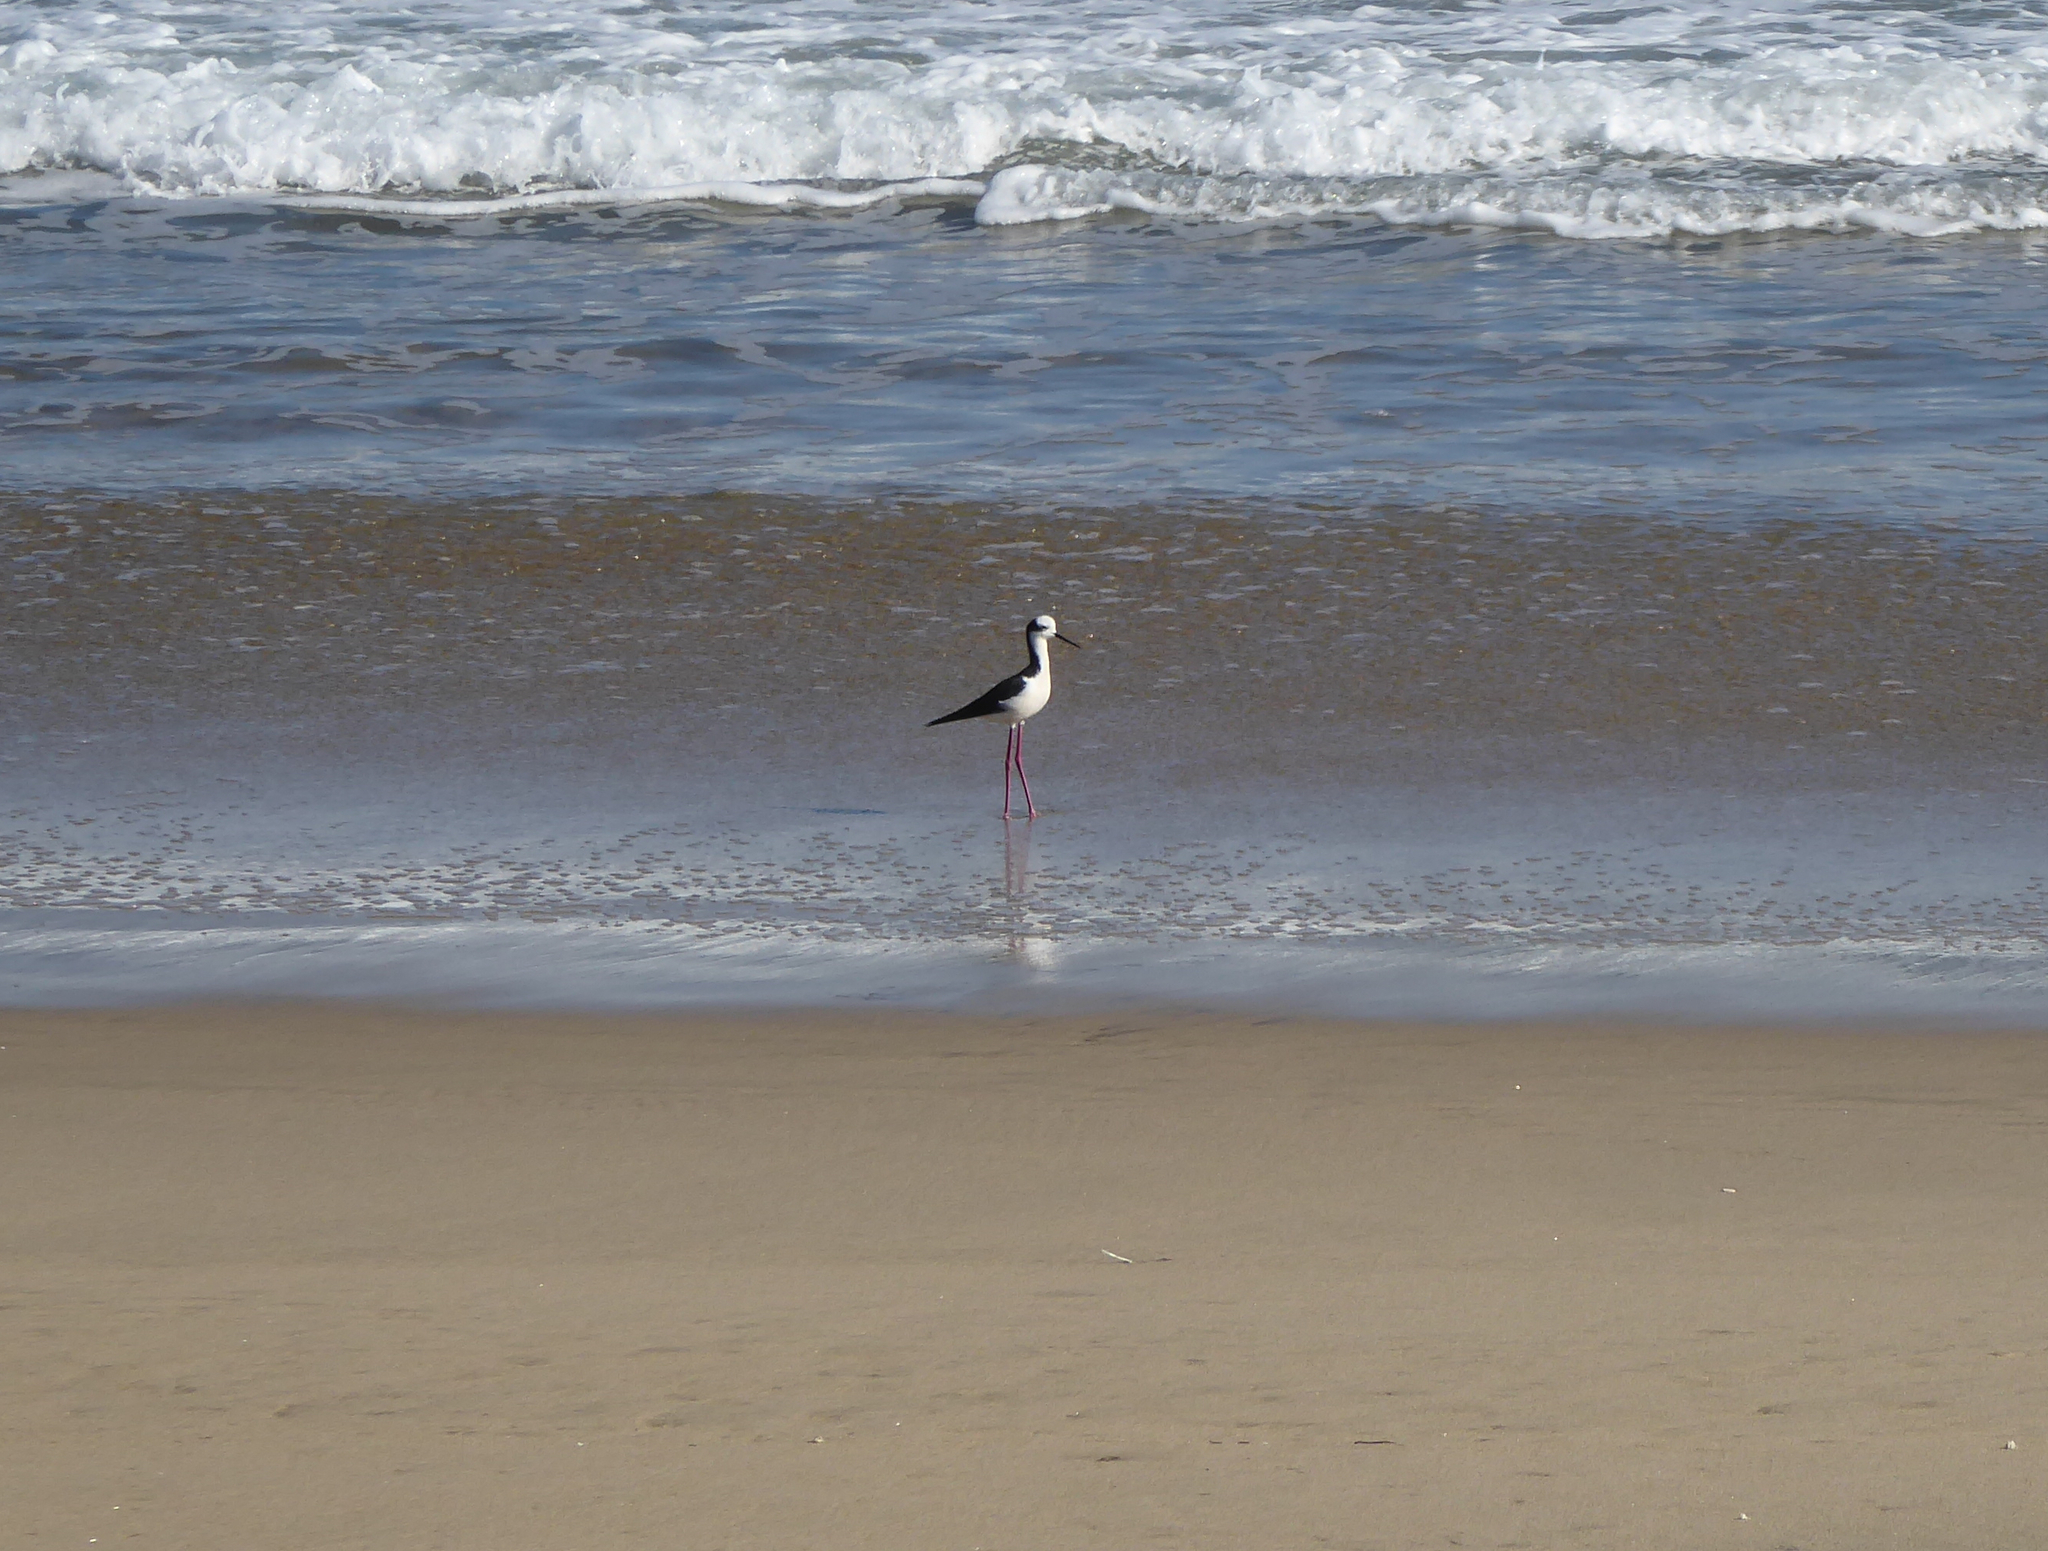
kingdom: Animalia
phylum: Chordata
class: Aves
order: Charadriiformes
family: Recurvirostridae
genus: Himantopus
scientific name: Himantopus mexicanus
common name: Black-necked stilt
